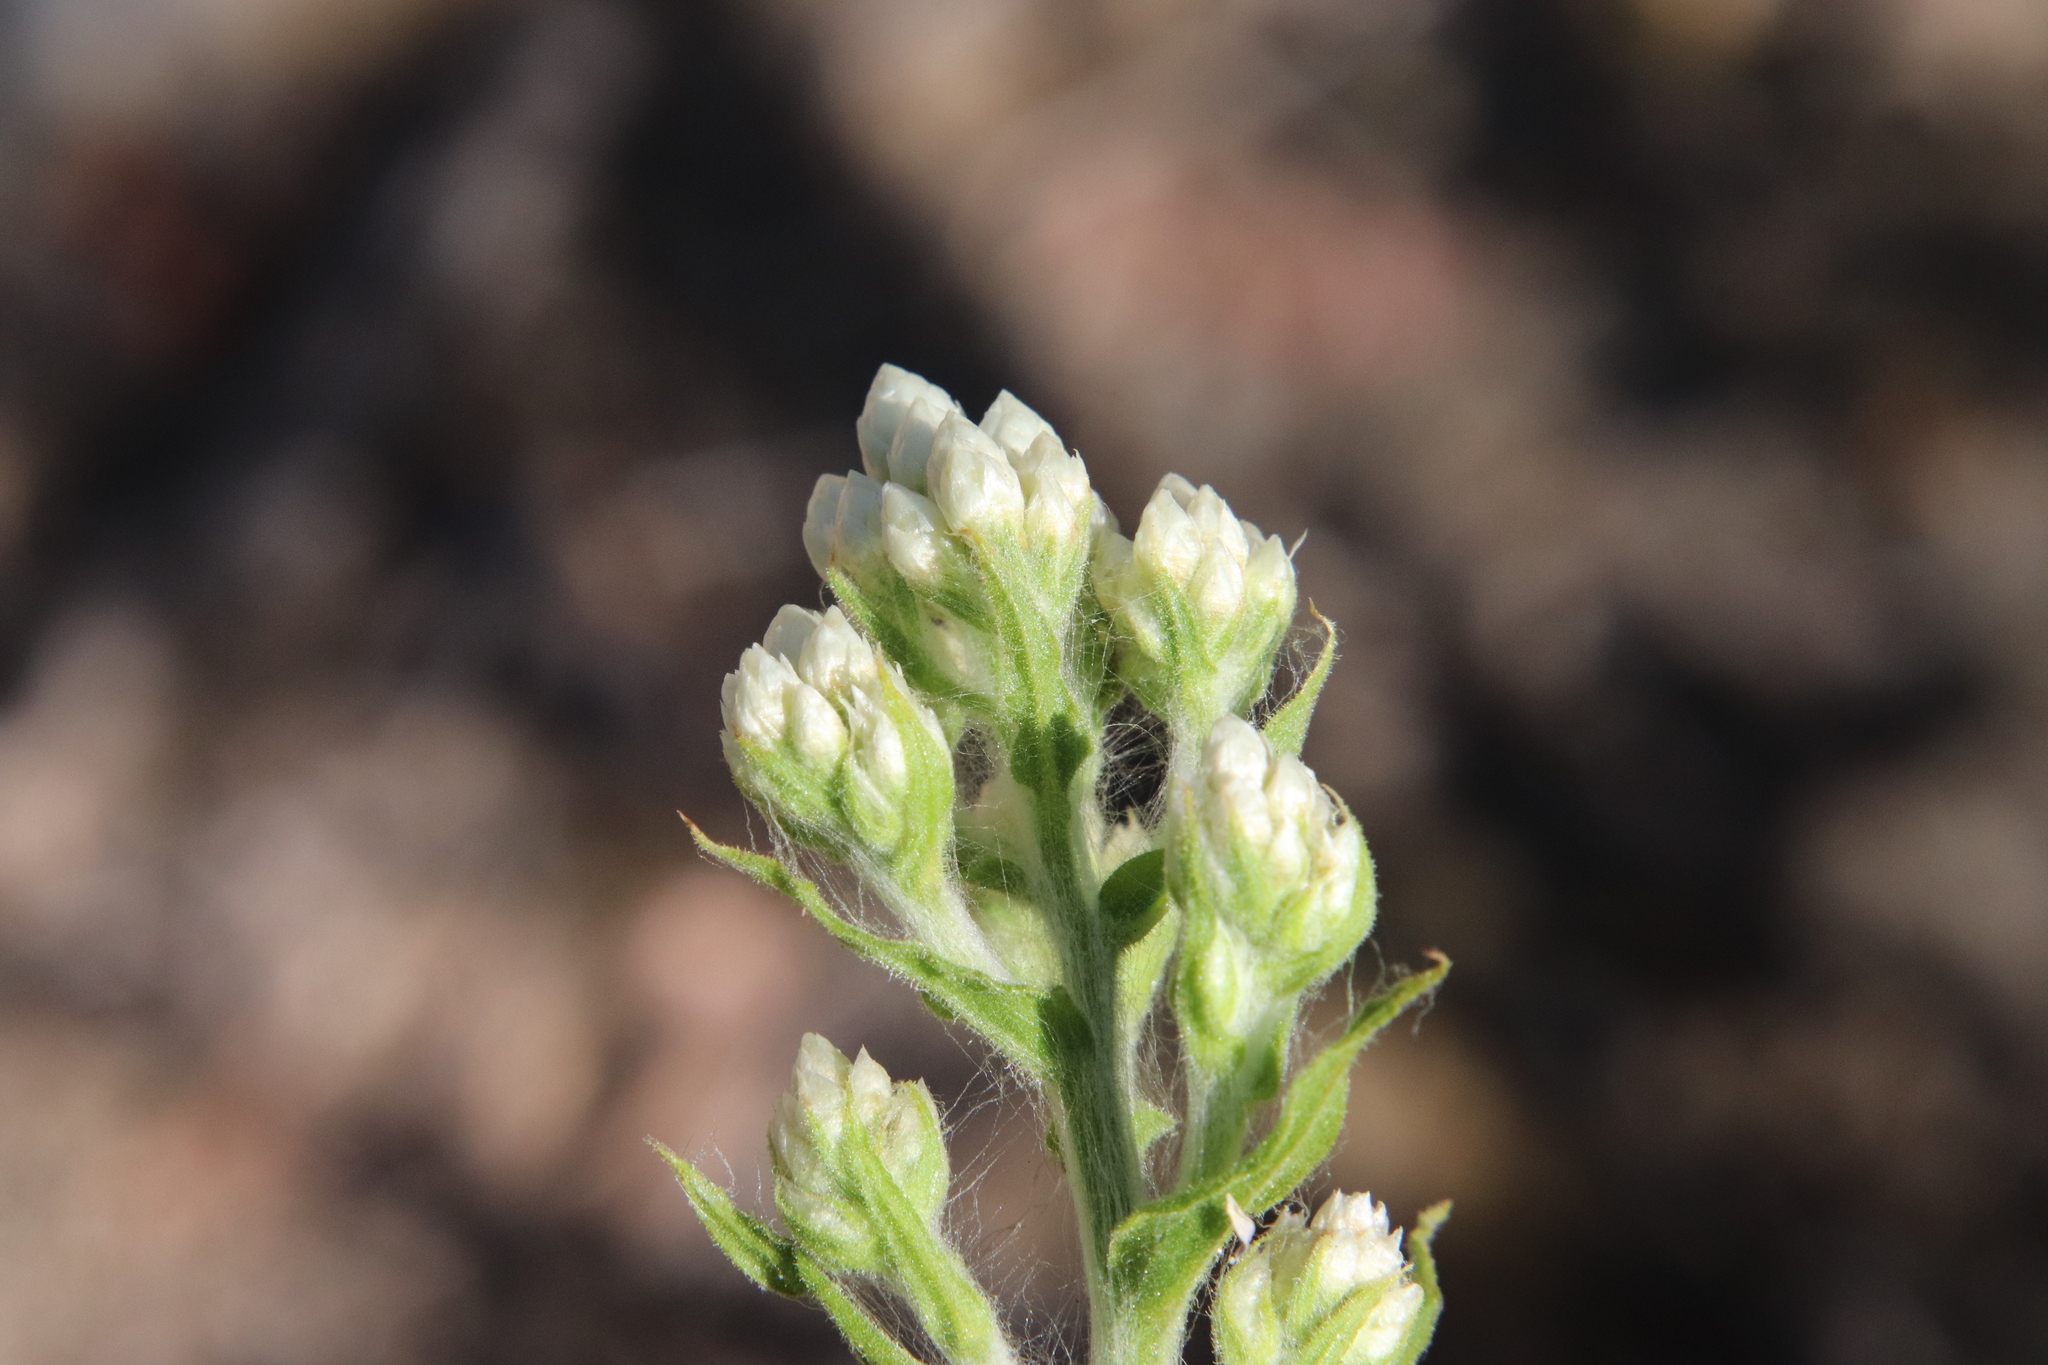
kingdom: Plantae
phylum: Tracheophyta
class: Magnoliopsida
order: Asterales
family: Asteraceae
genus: Pseudognaphalium
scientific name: Pseudognaphalium californicum
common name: California rabbit-tobacco
